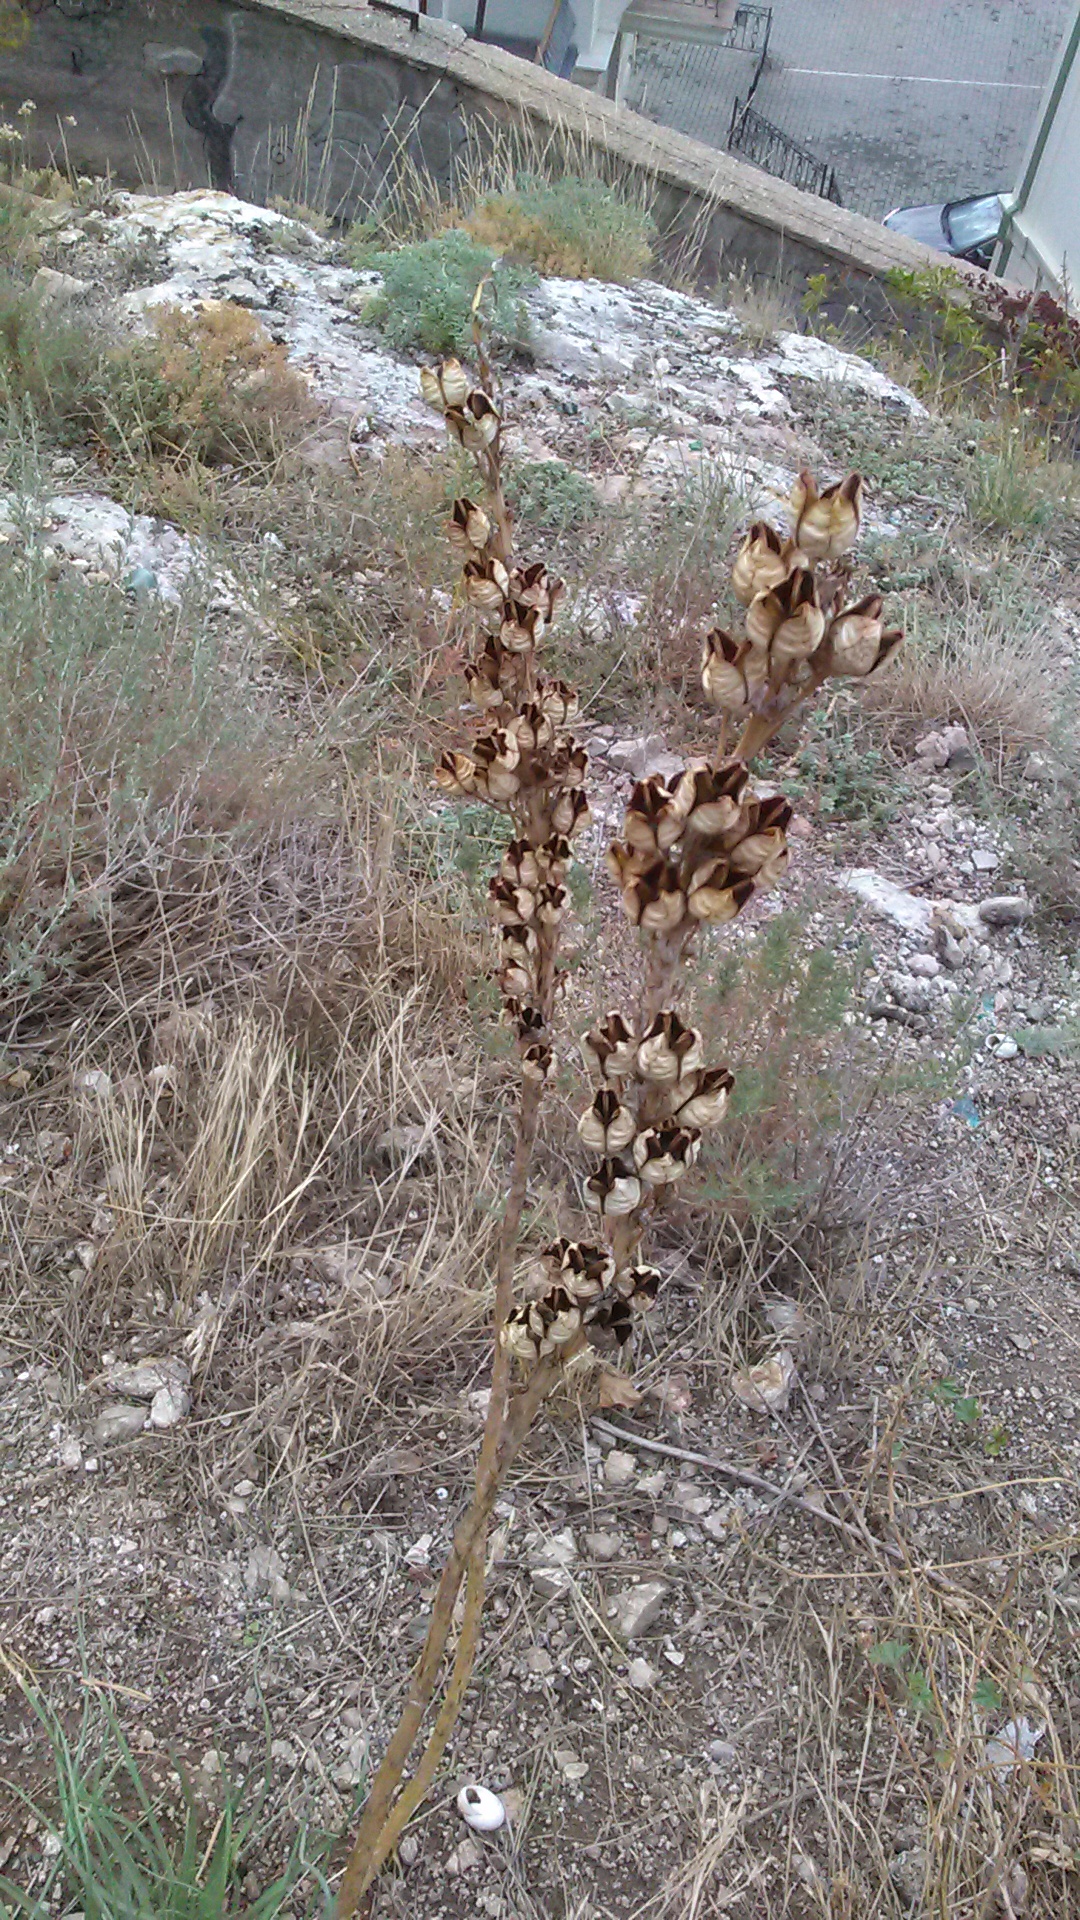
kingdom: Plantae
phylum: Tracheophyta
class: Liliopsida
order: Asparagales
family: Asphodelaceae
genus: Asphodeline
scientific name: Asphodeline lutea
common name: Yellow asphodel
